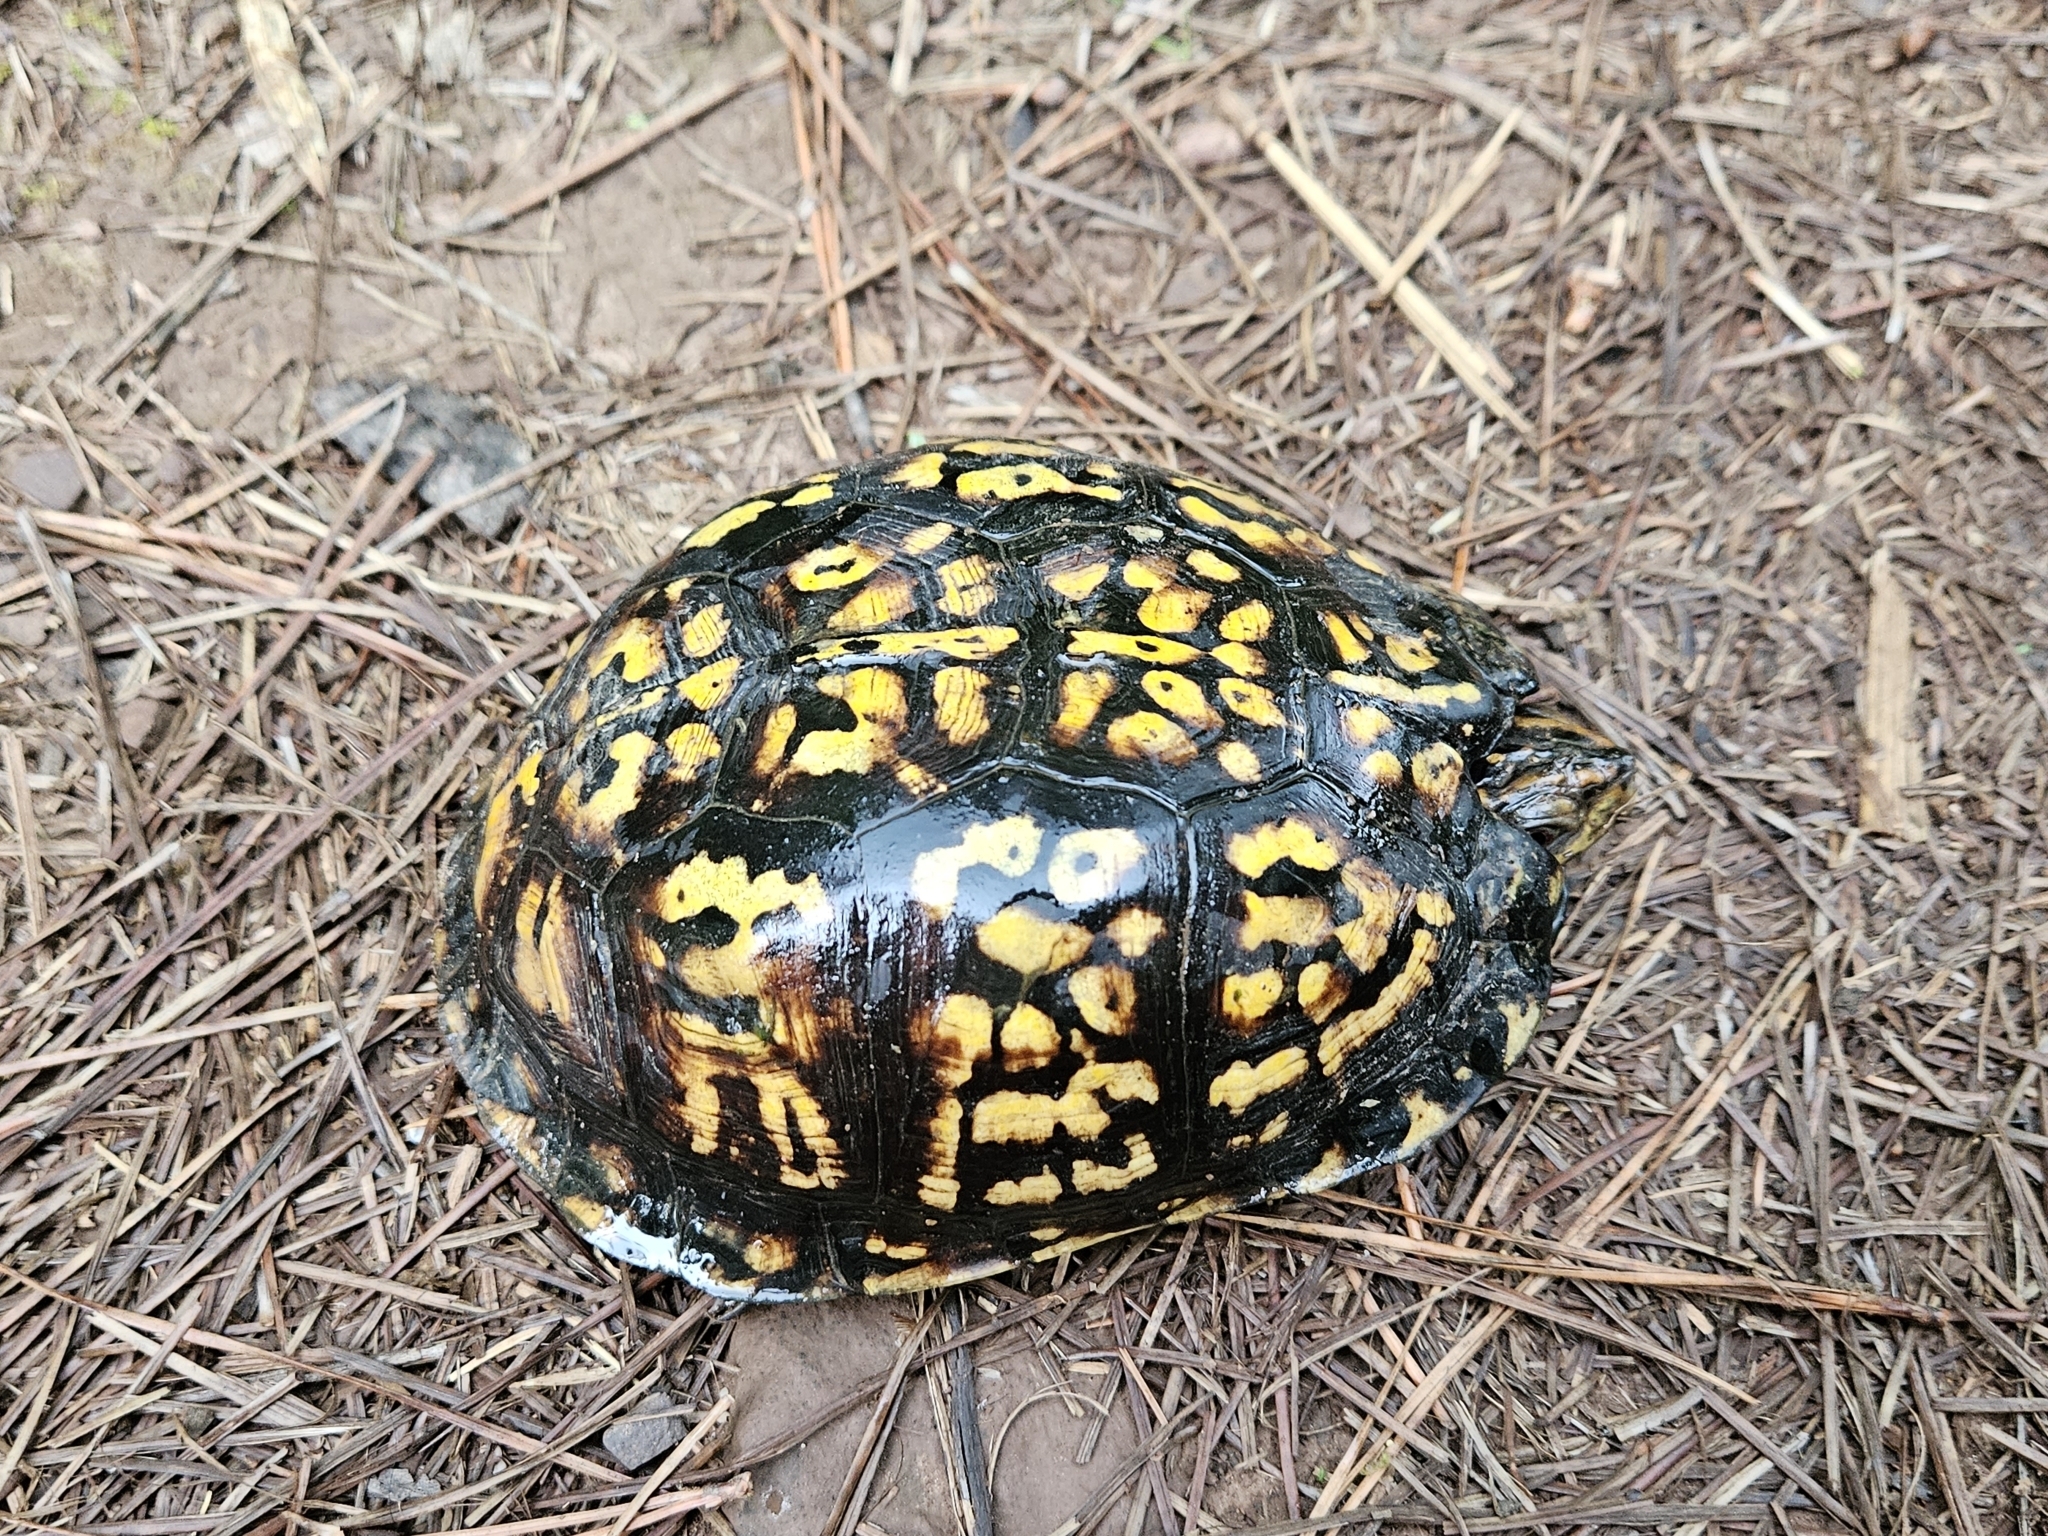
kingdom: Animalia
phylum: Chordata
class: Testudines
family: Emydidae
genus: Terrapene
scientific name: Terrapene carolina
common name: Common box turtle
